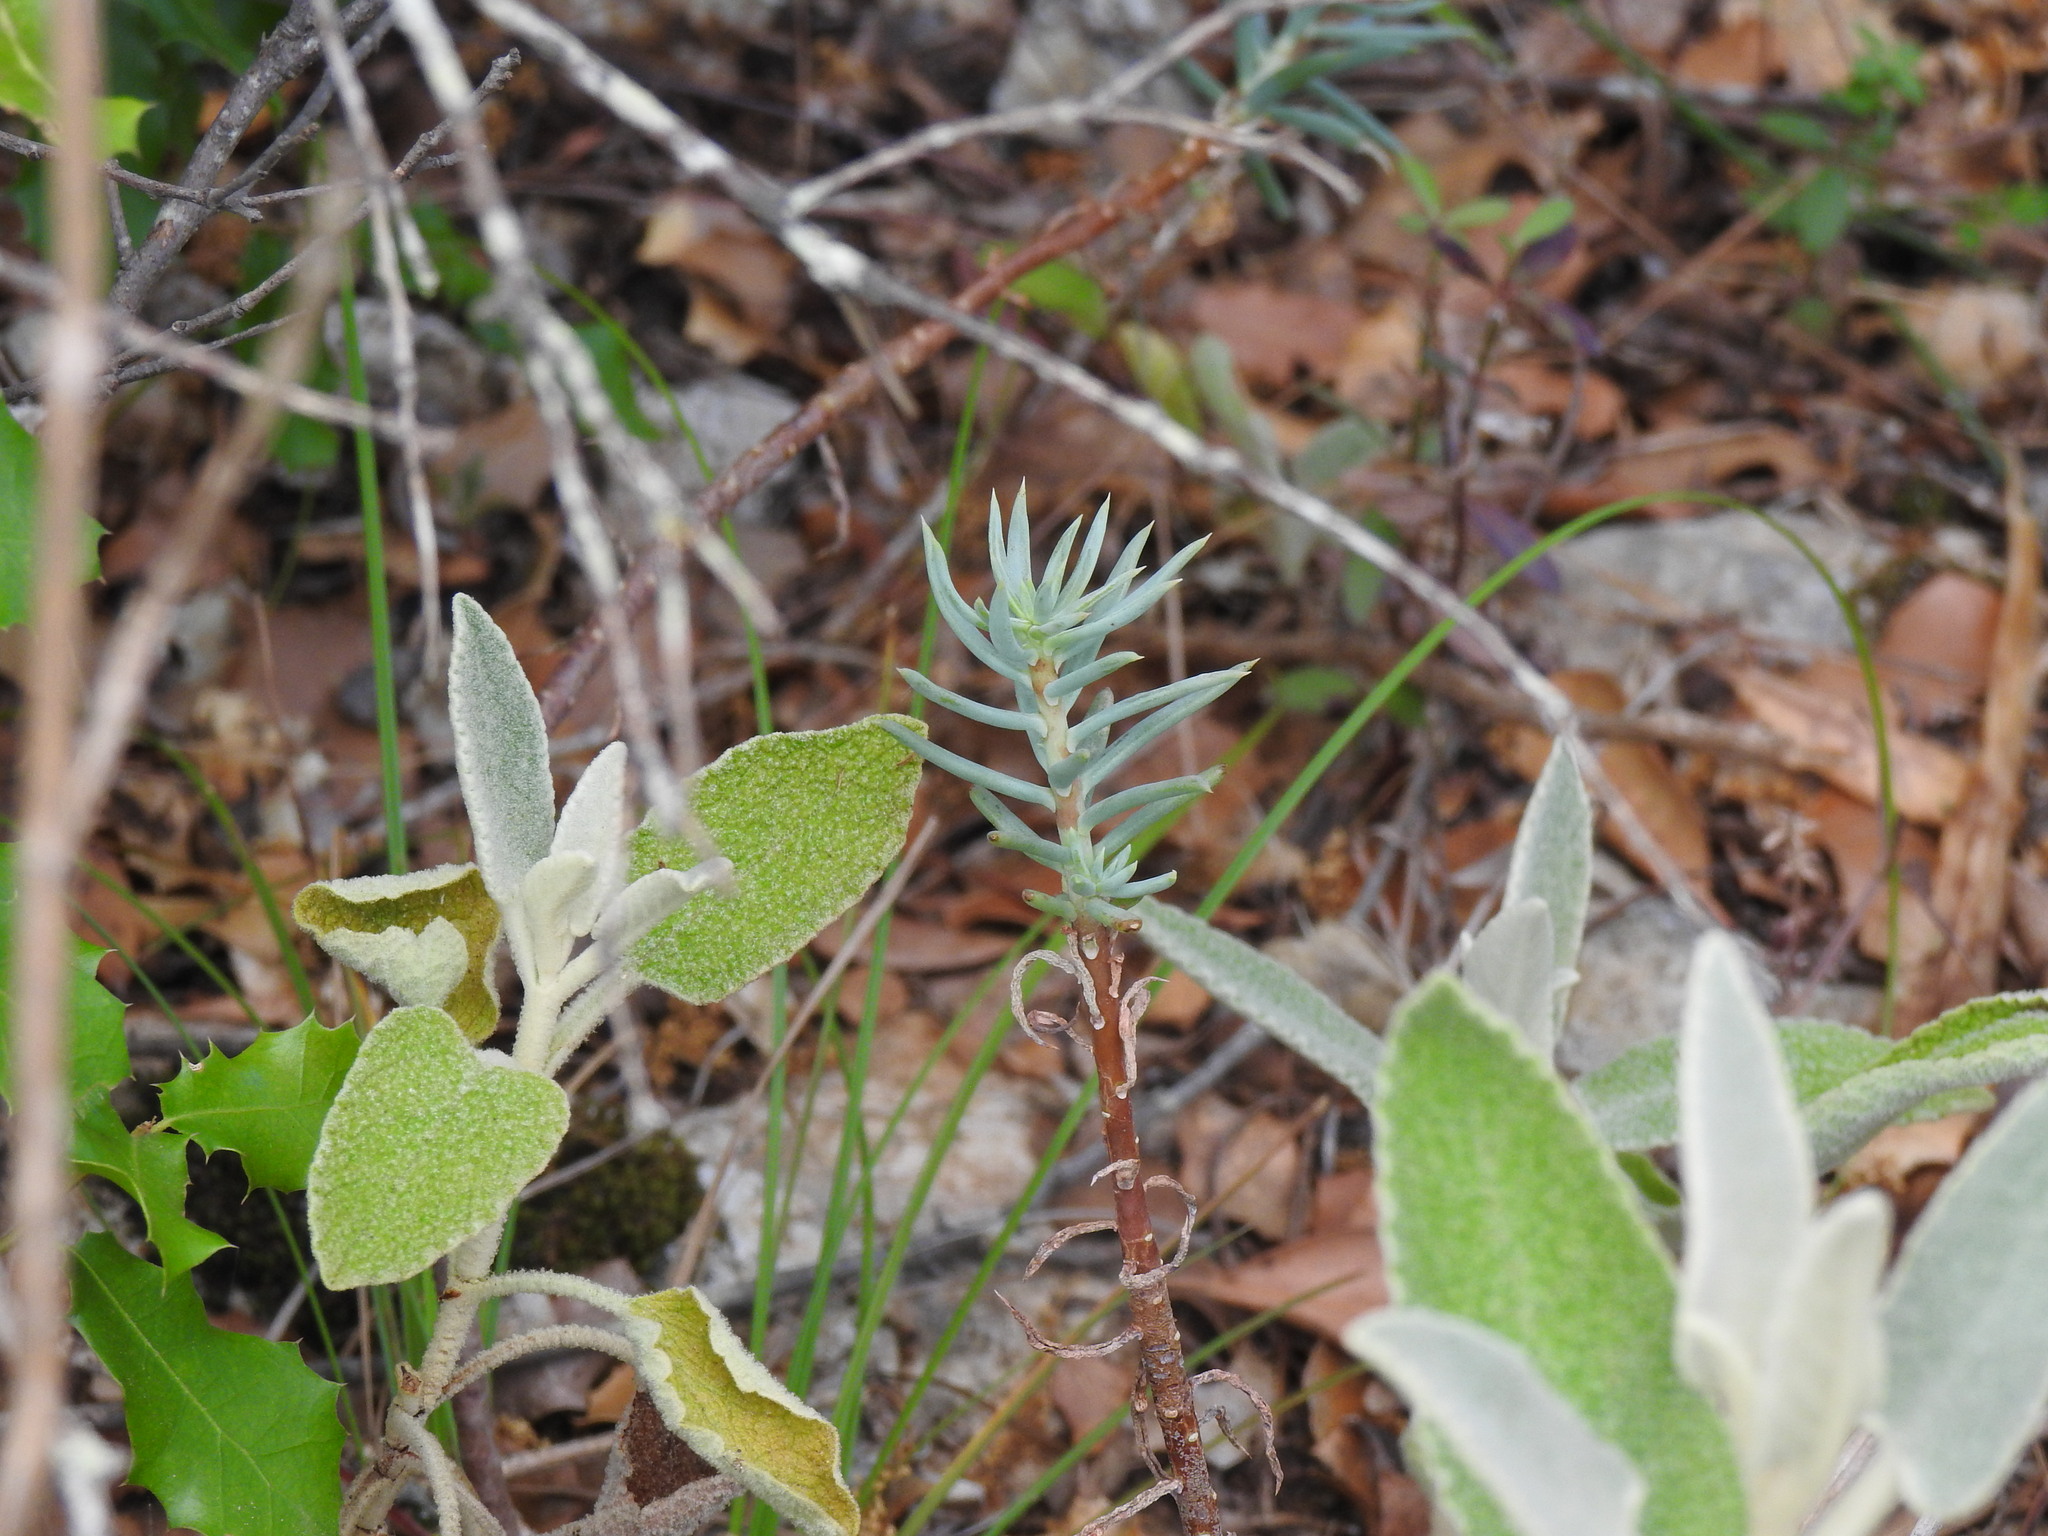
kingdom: Plantae
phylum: Tracheophyta
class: Magnoliopsida
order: Saxifragales
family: Crassulaceae
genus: Petrosedum
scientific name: Petrosedum sediforme
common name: Pale stonecrop
